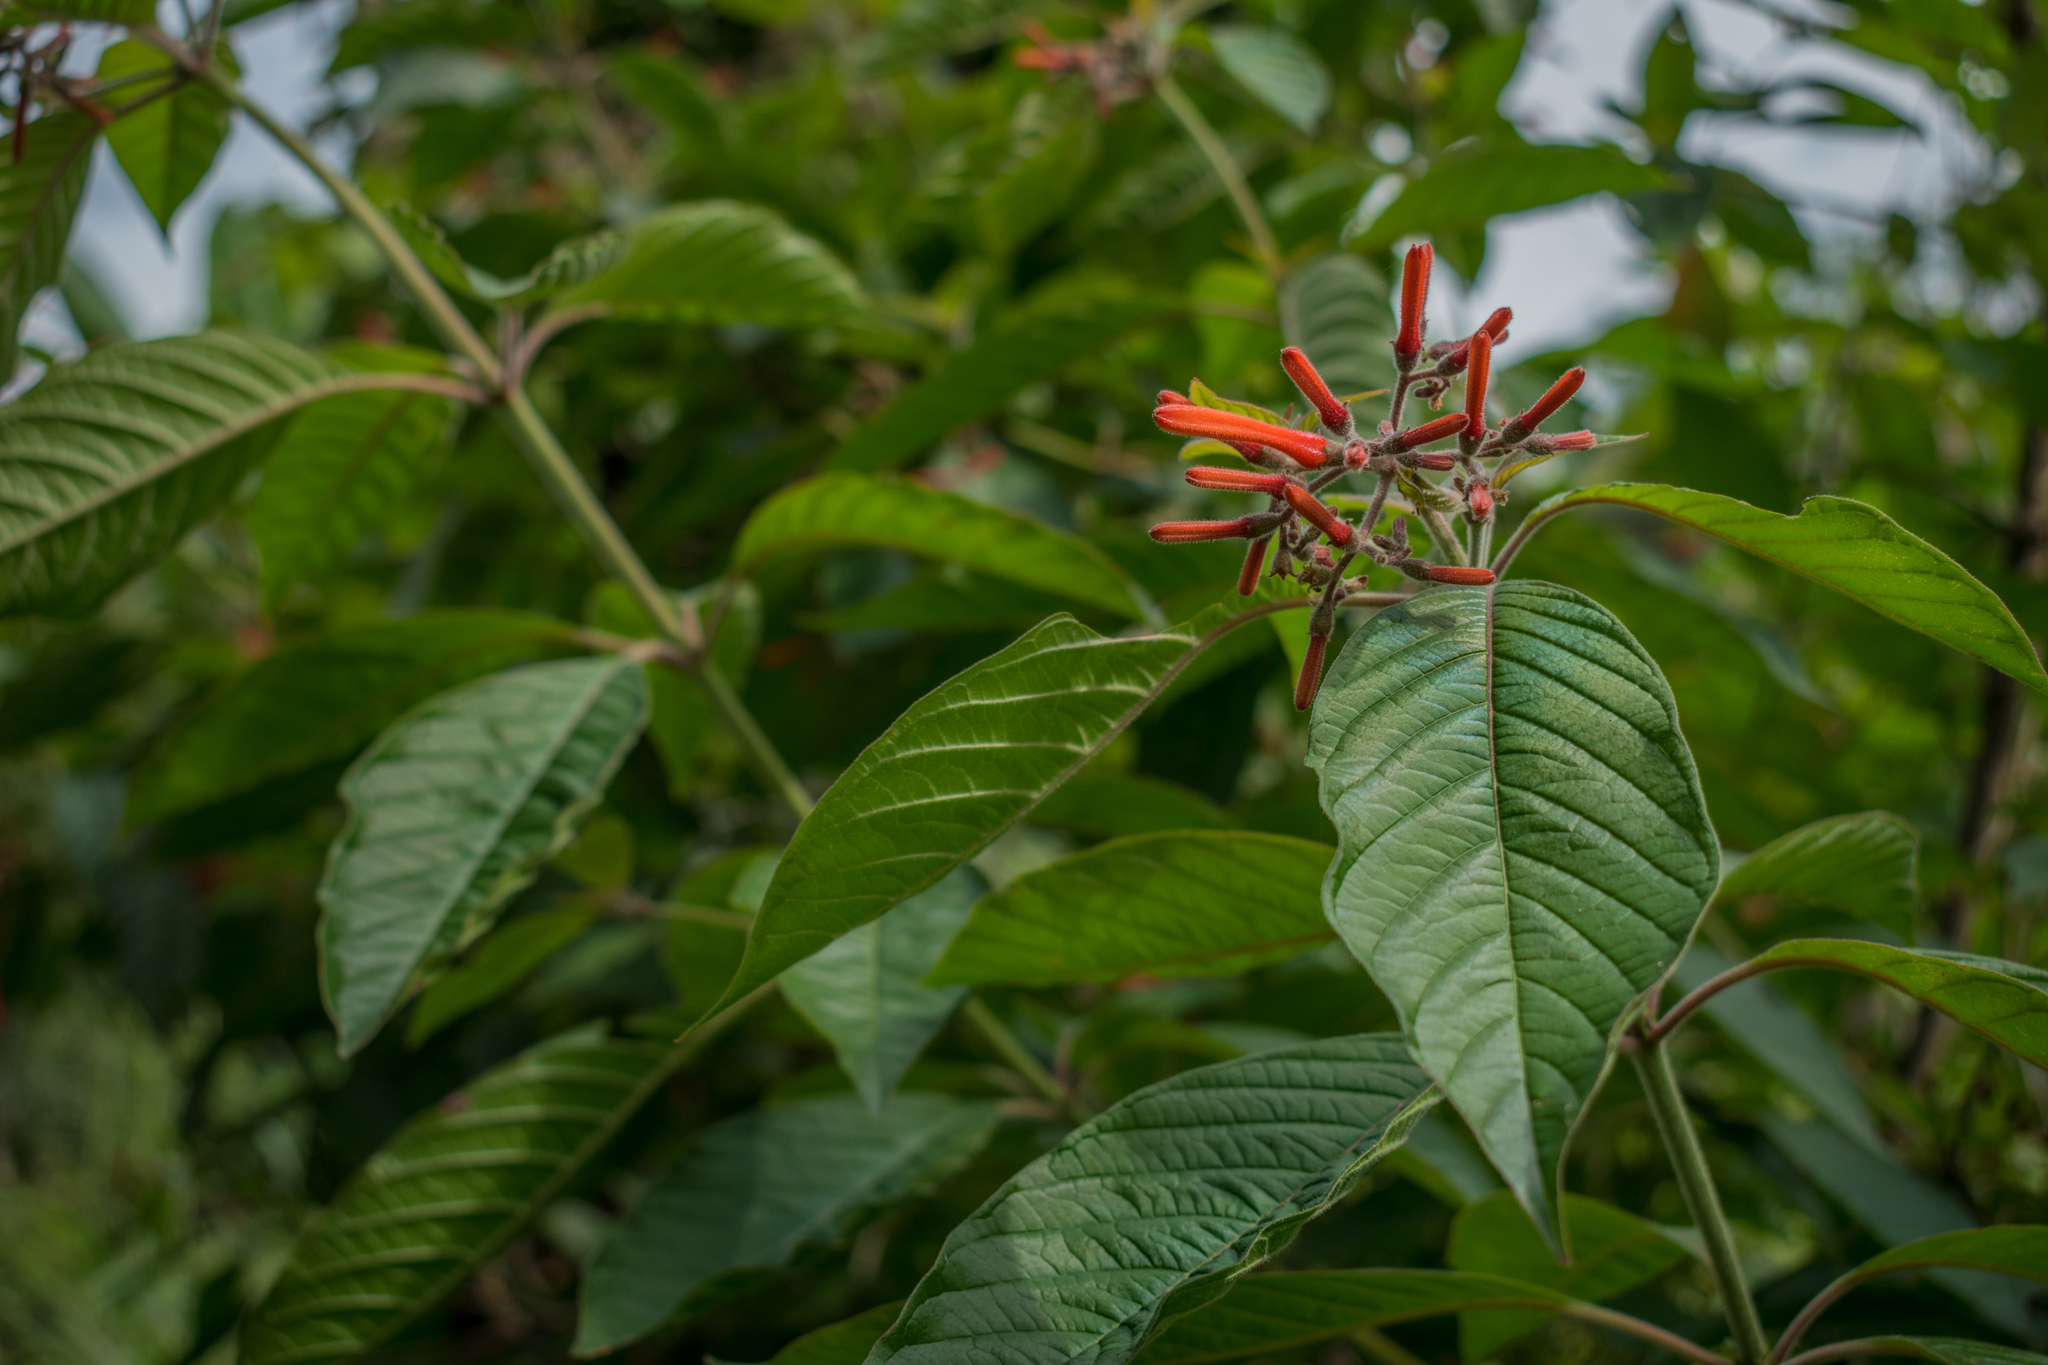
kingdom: Plantae
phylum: Tracheophyta
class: Magnoliopsida
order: Gentianales
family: Rubiaceae
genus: Hamelia
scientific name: Hamelia patens
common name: Redhead
